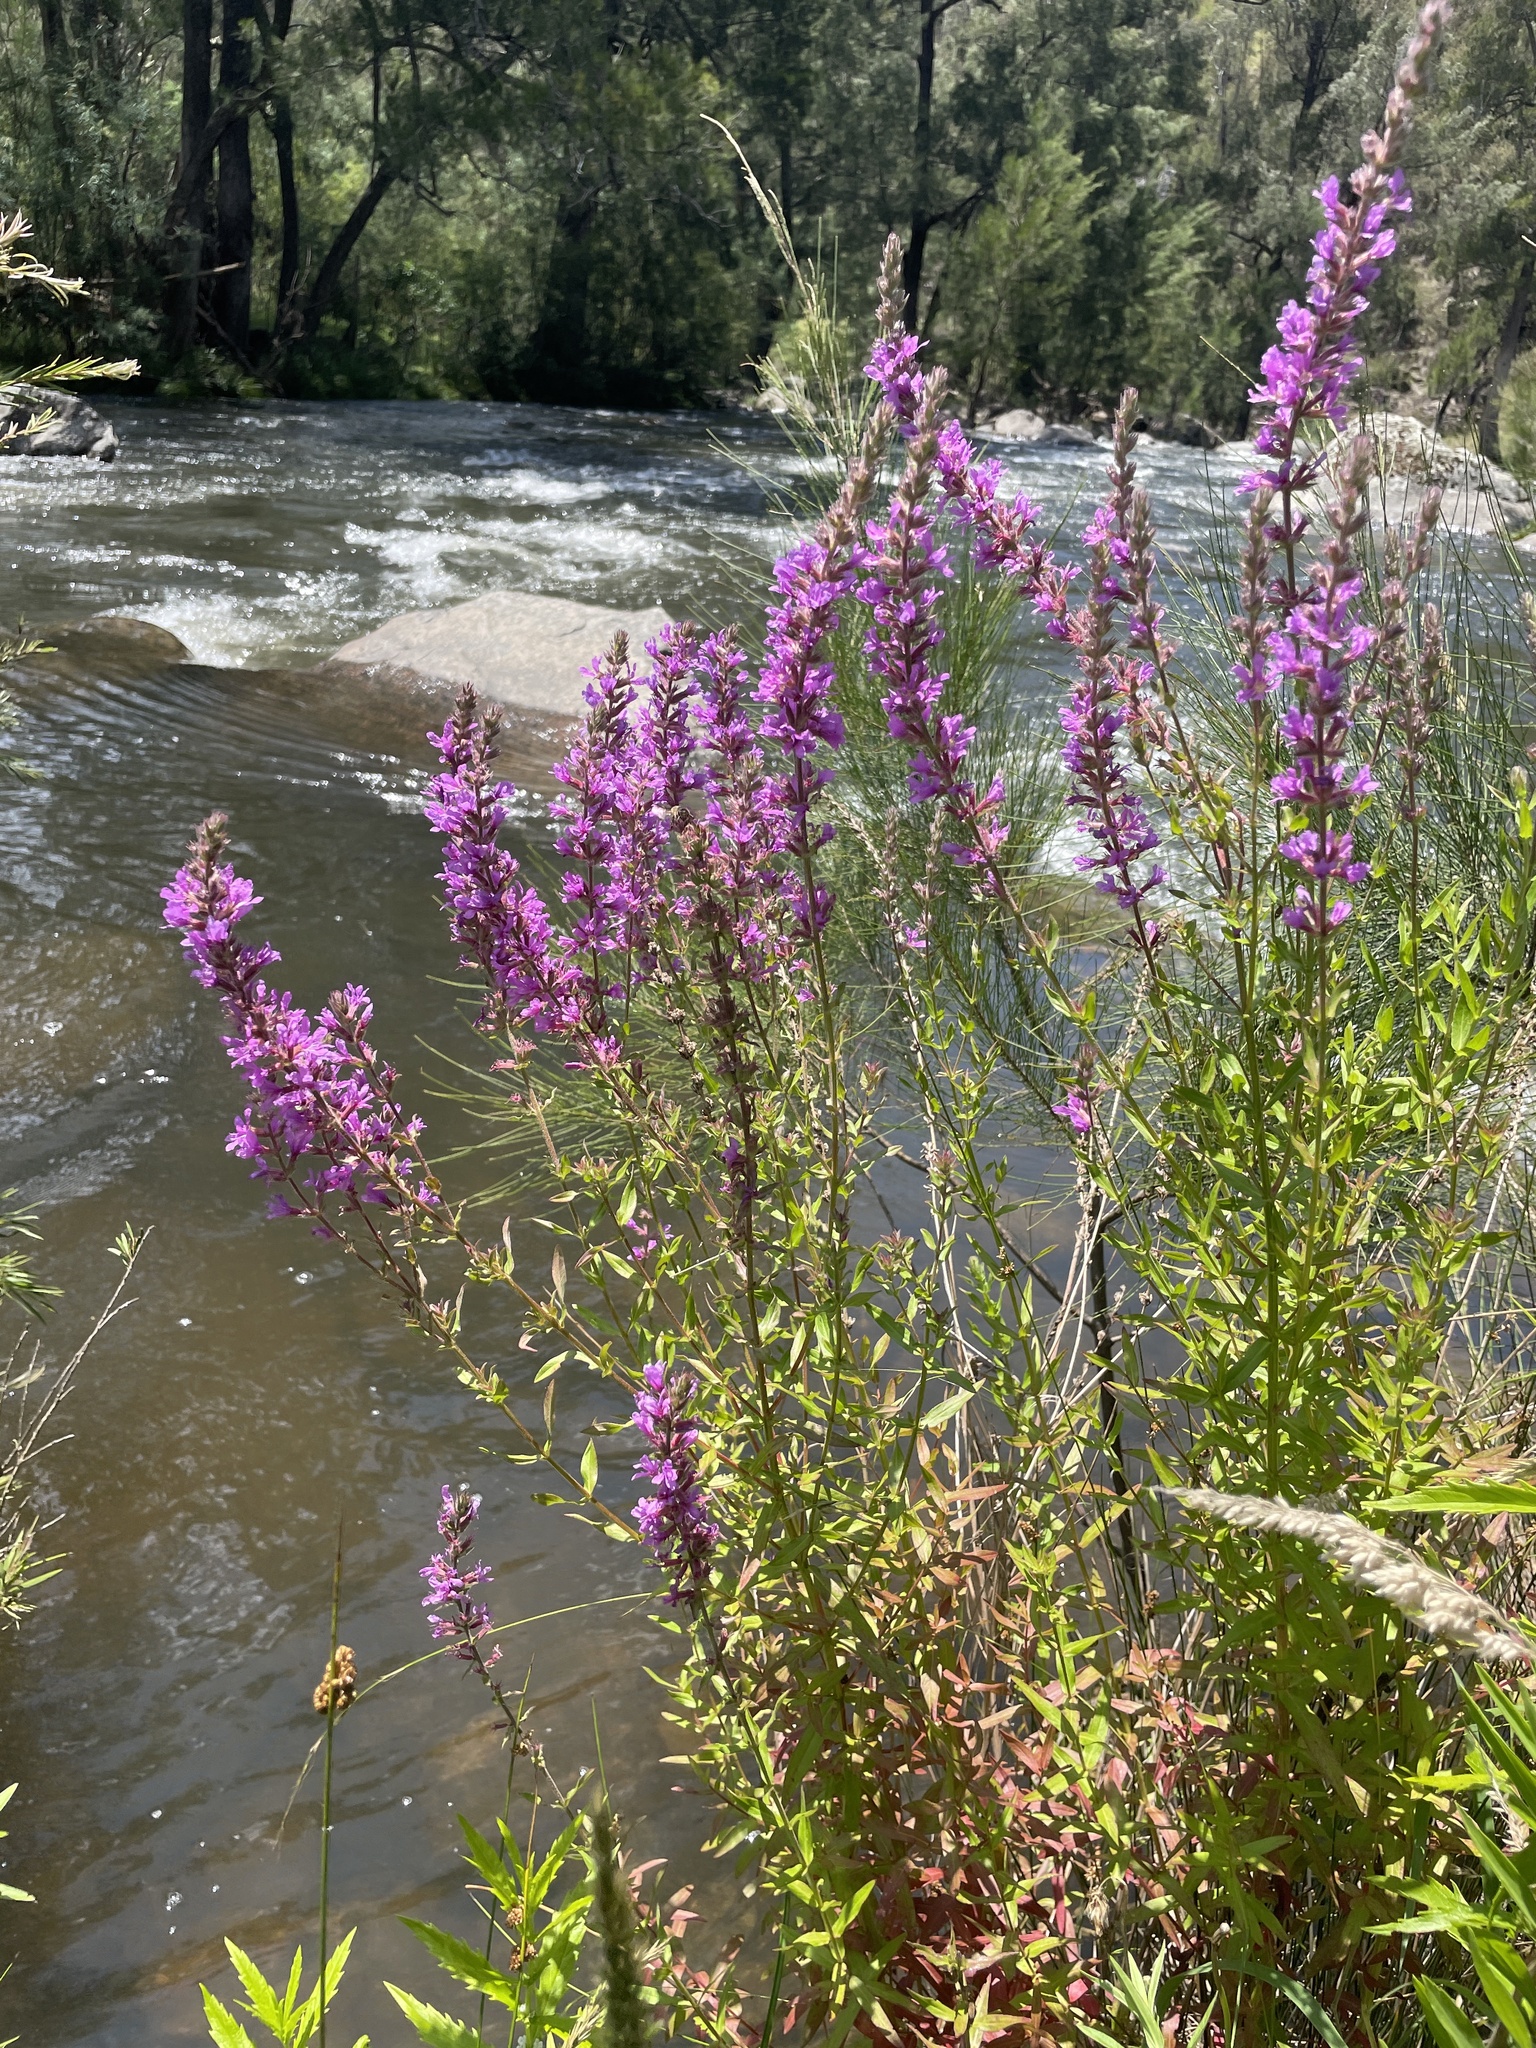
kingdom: Plantae
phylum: Tracheophyta
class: Magnoliopsida
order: Myrtales
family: Lythraceae
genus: Lythrum
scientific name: Lythrum salicaria
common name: Purple loosestrife
